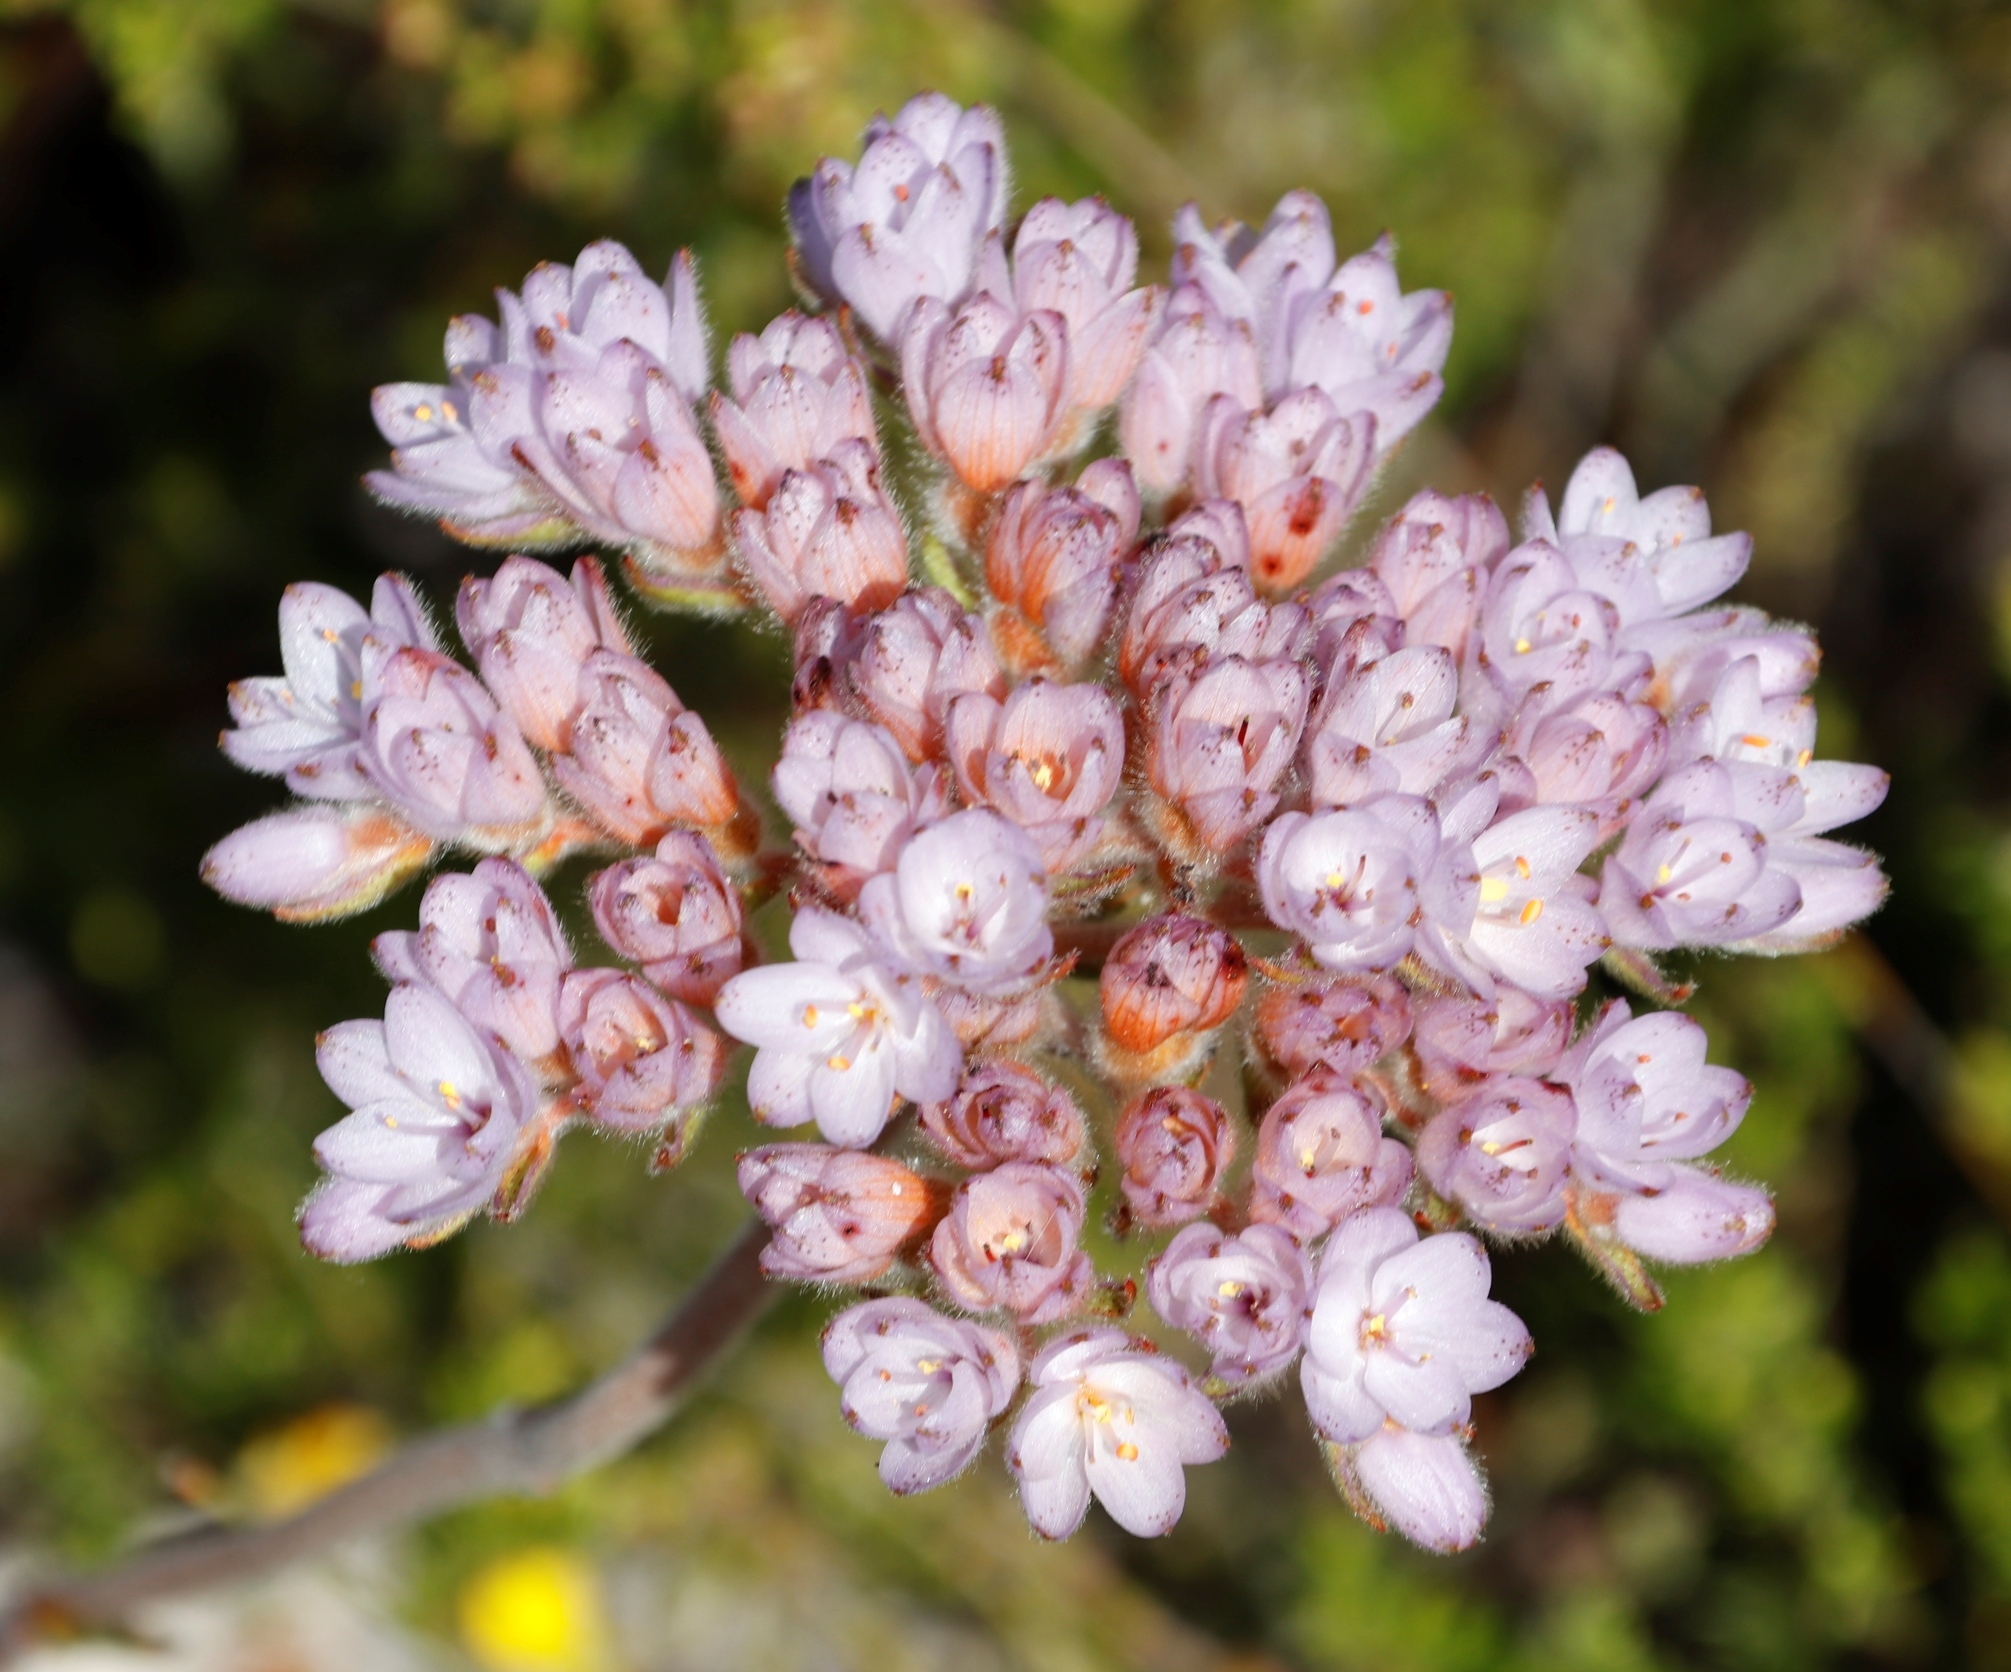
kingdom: Plantae
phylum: Tracheophyta
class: Liliopsida
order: Commelinales
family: Haemodoraceae
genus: Dilatris
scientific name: Dilatris pillansii
